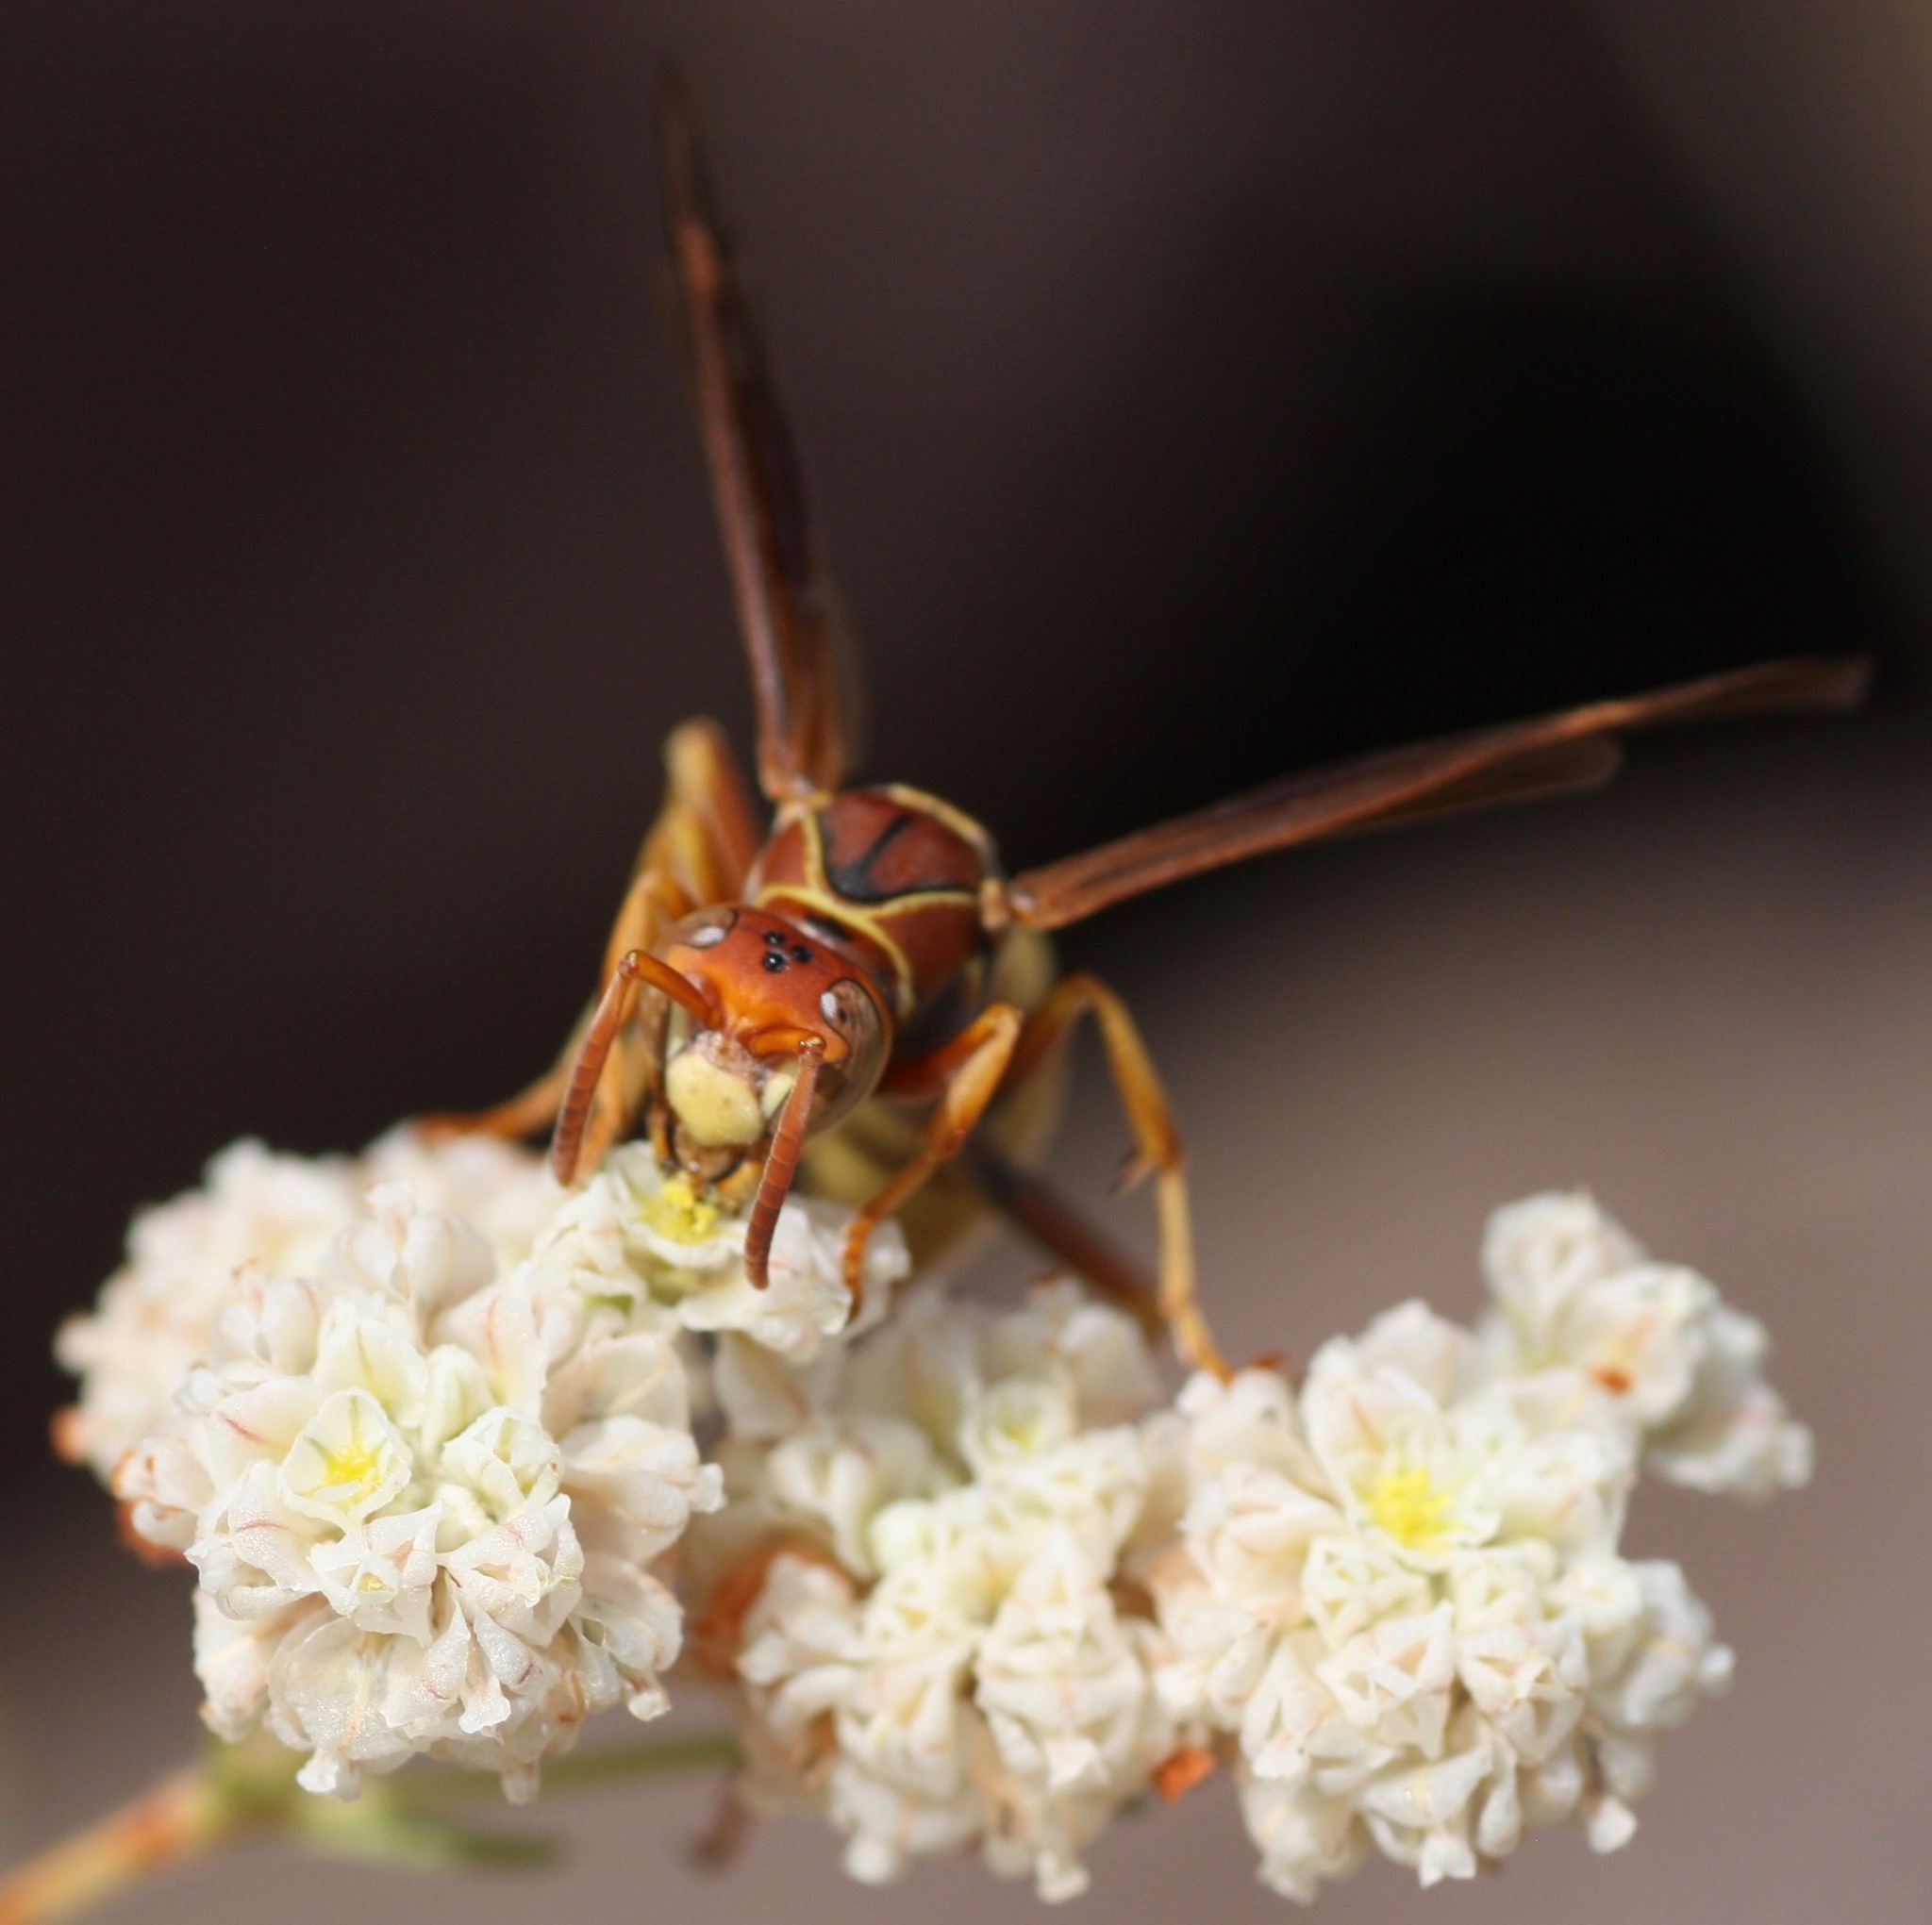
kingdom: Animalia
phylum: Arthropoda
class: Insecta
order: Hymenoptera
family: Eumenidae
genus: Polistes
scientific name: Polistes dorsalis
